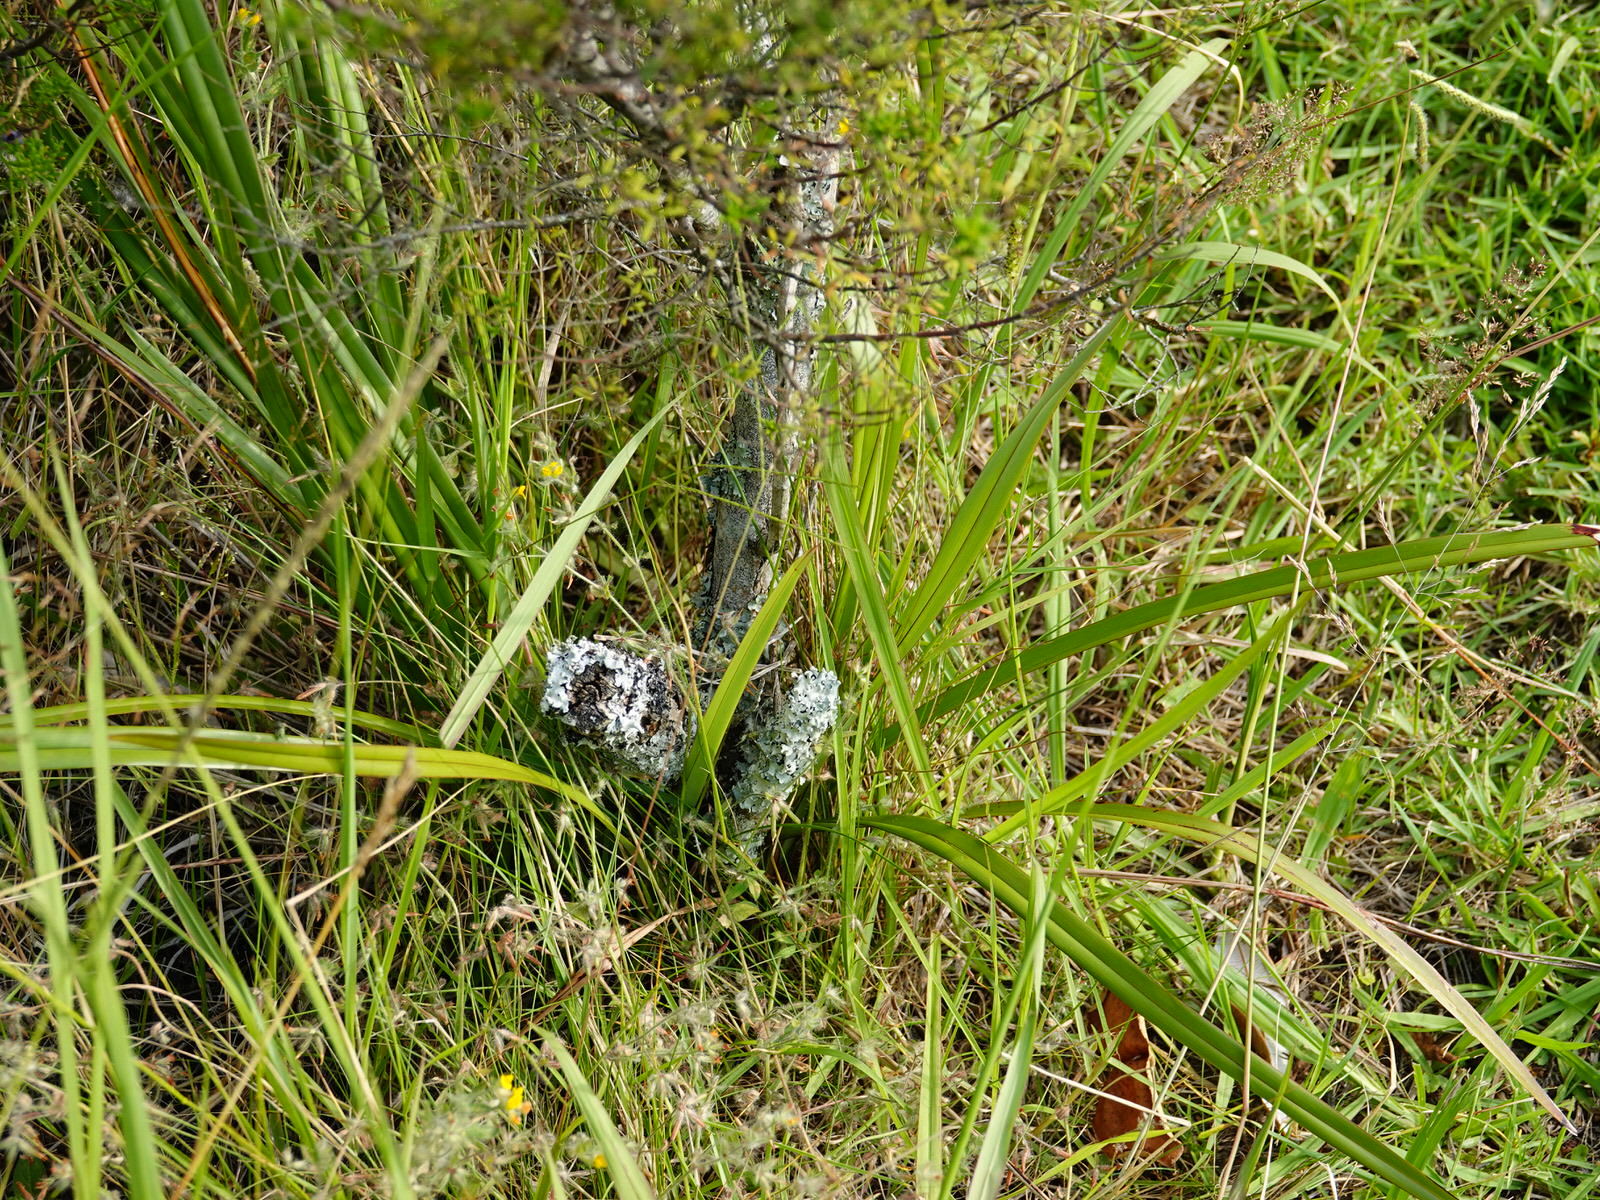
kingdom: Plantae
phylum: Tracheophyta
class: Liliopsida
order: Asparagales
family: Asphodelaceae
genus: Dianella
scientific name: Dianella nigra
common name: New zealand-blueberry
